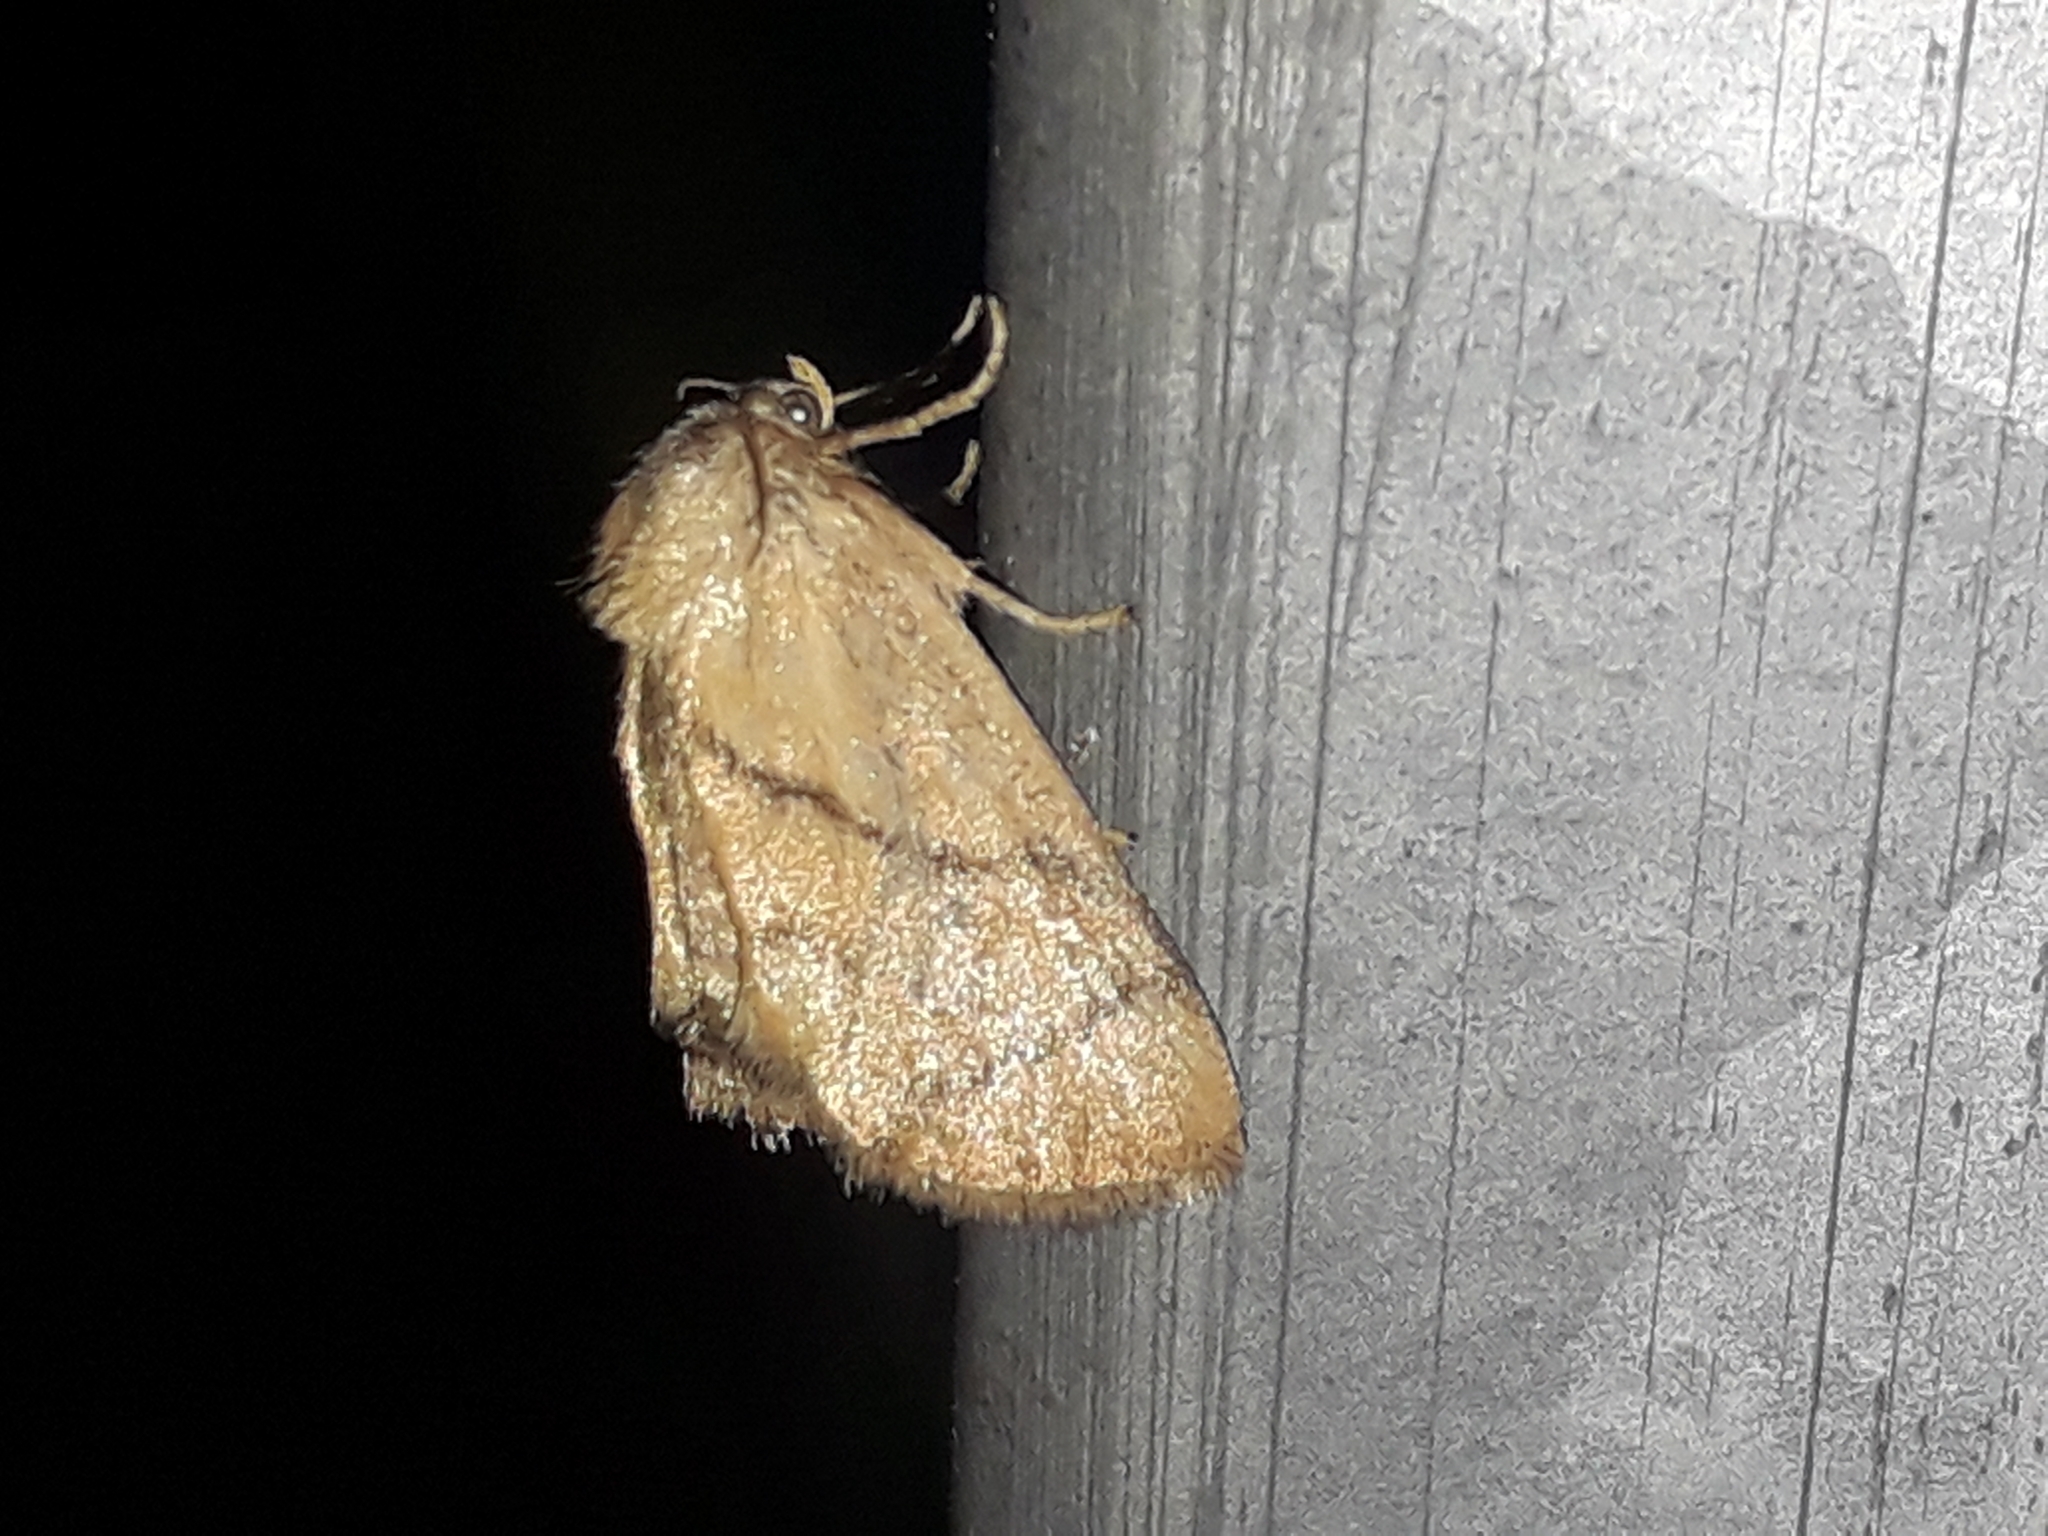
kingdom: Animalia
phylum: Arthropoda
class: Insecta
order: Lepidoptera
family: Limacodidae
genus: Apoda
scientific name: Apoda limacodes
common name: Festoon
